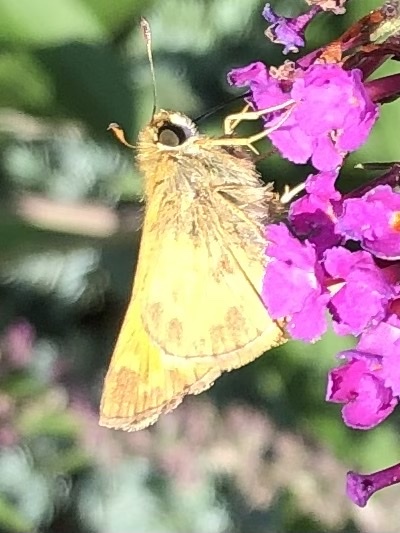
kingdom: Animalia
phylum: Arthropoda
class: Insecta
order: Lepidoptera
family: Hesperiidae
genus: Atalopedes
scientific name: Atalopedes
